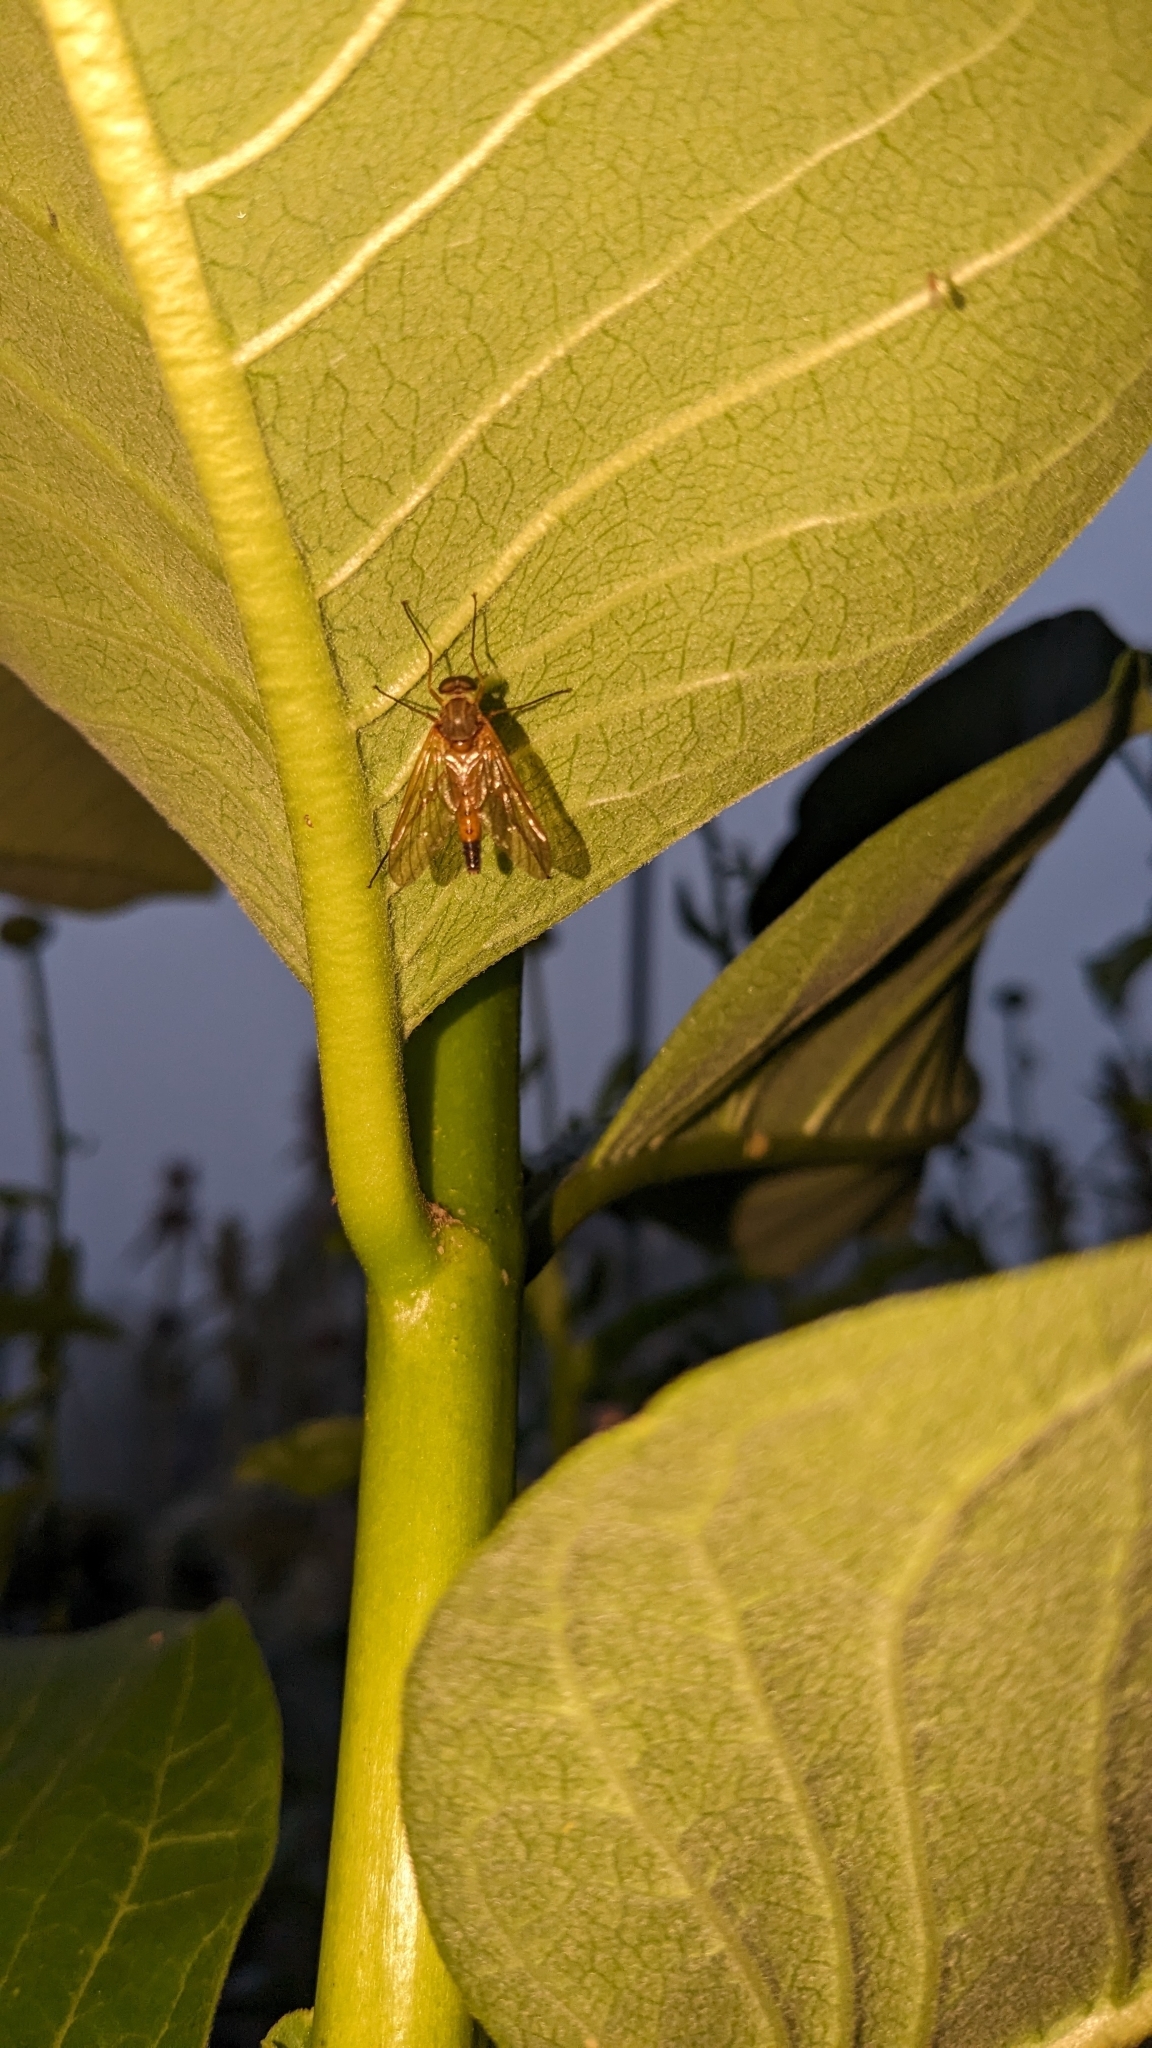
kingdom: Animalia
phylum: Arthropoda
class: Insecta
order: Diptera
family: Rhagionidae
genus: Rhagio
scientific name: Rhagio tringaria
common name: Marsh snipefly
